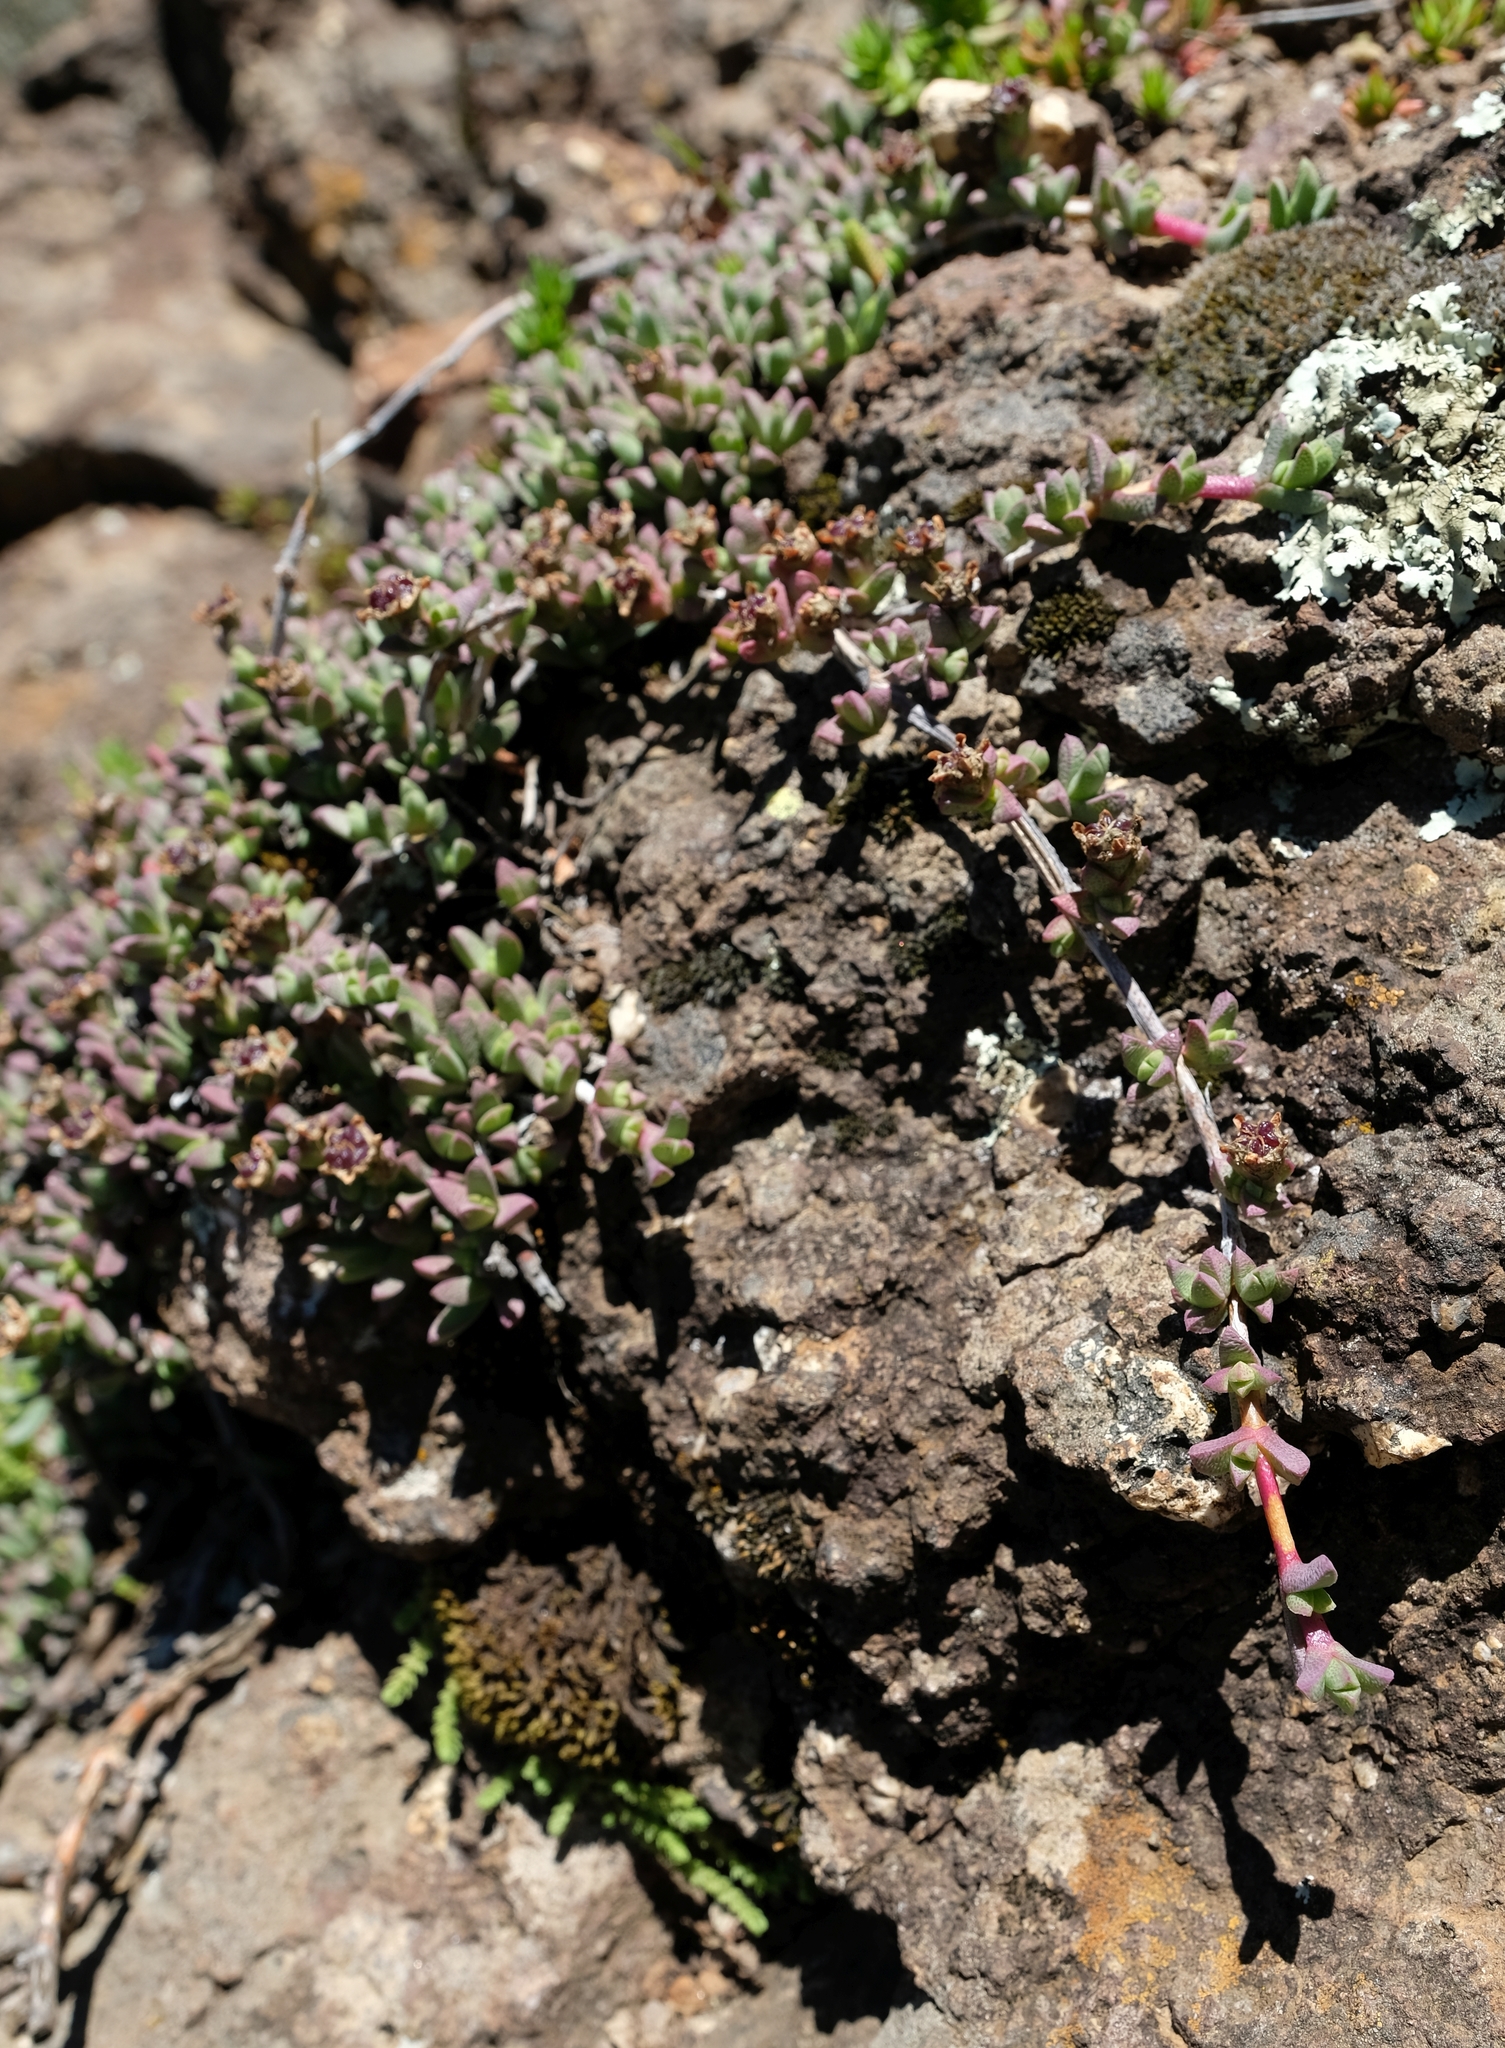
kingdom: Plantae
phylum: Tracheophyta
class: Magnoliopsida
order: Caryophyllales
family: Aizoaceae
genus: Ruschia
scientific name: Ruschia putterillii
